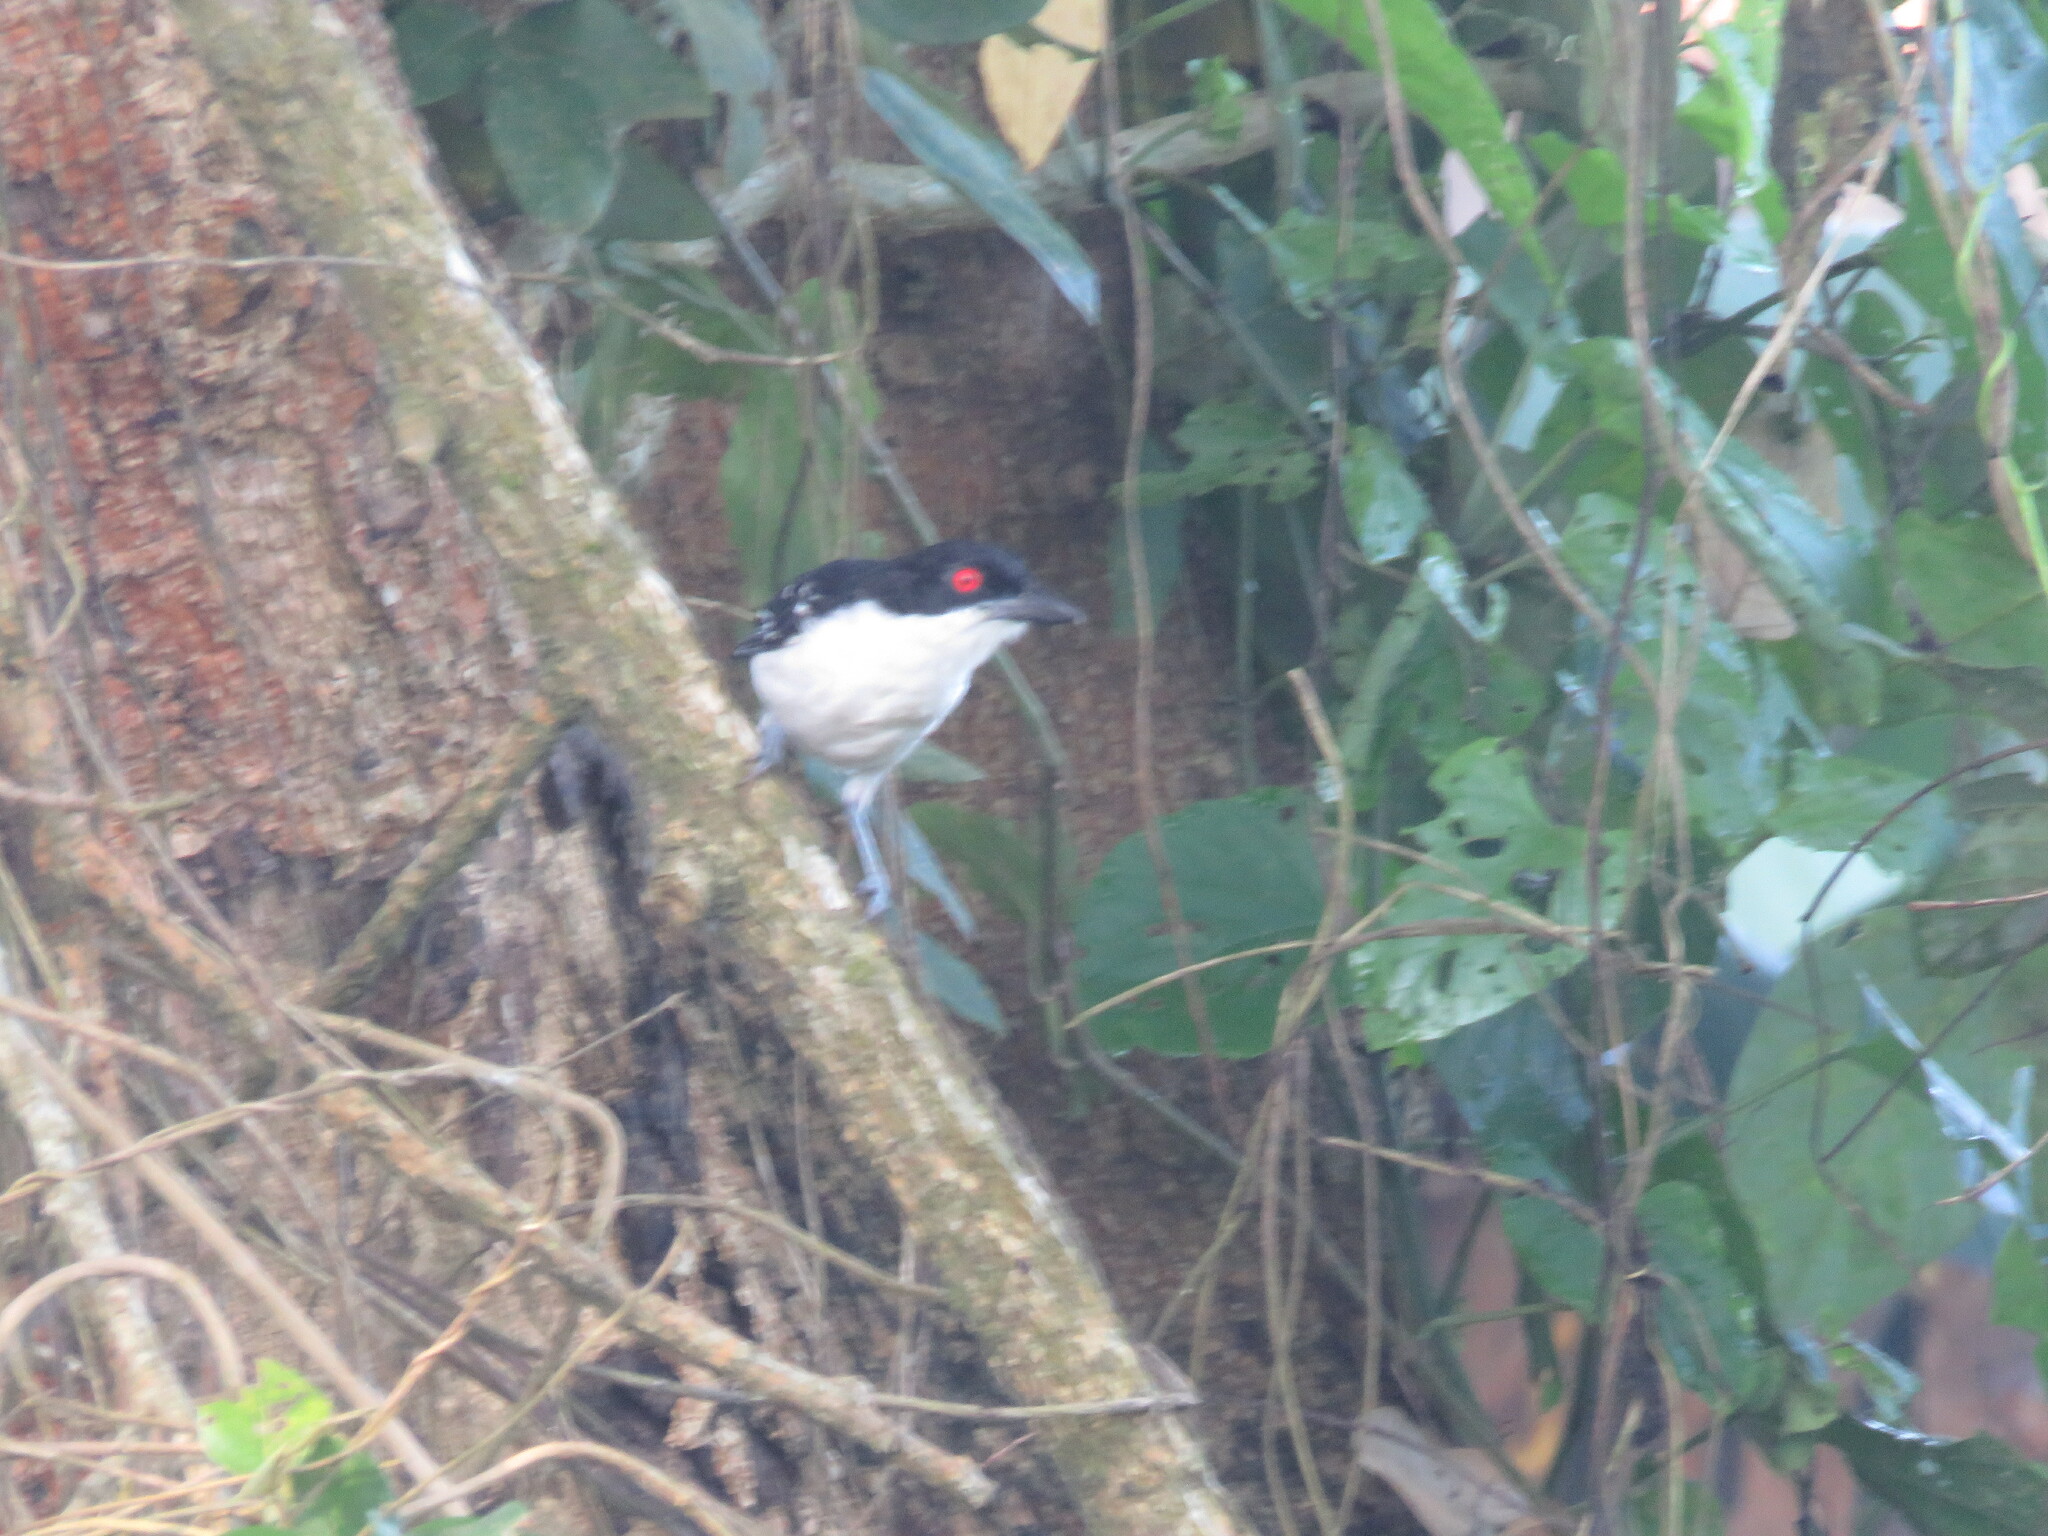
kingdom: Animalia
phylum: Chordata
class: Aves
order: Passeriformes
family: Thamnophilidae
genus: Taraba
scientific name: Taraba major
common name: Great antshrike
